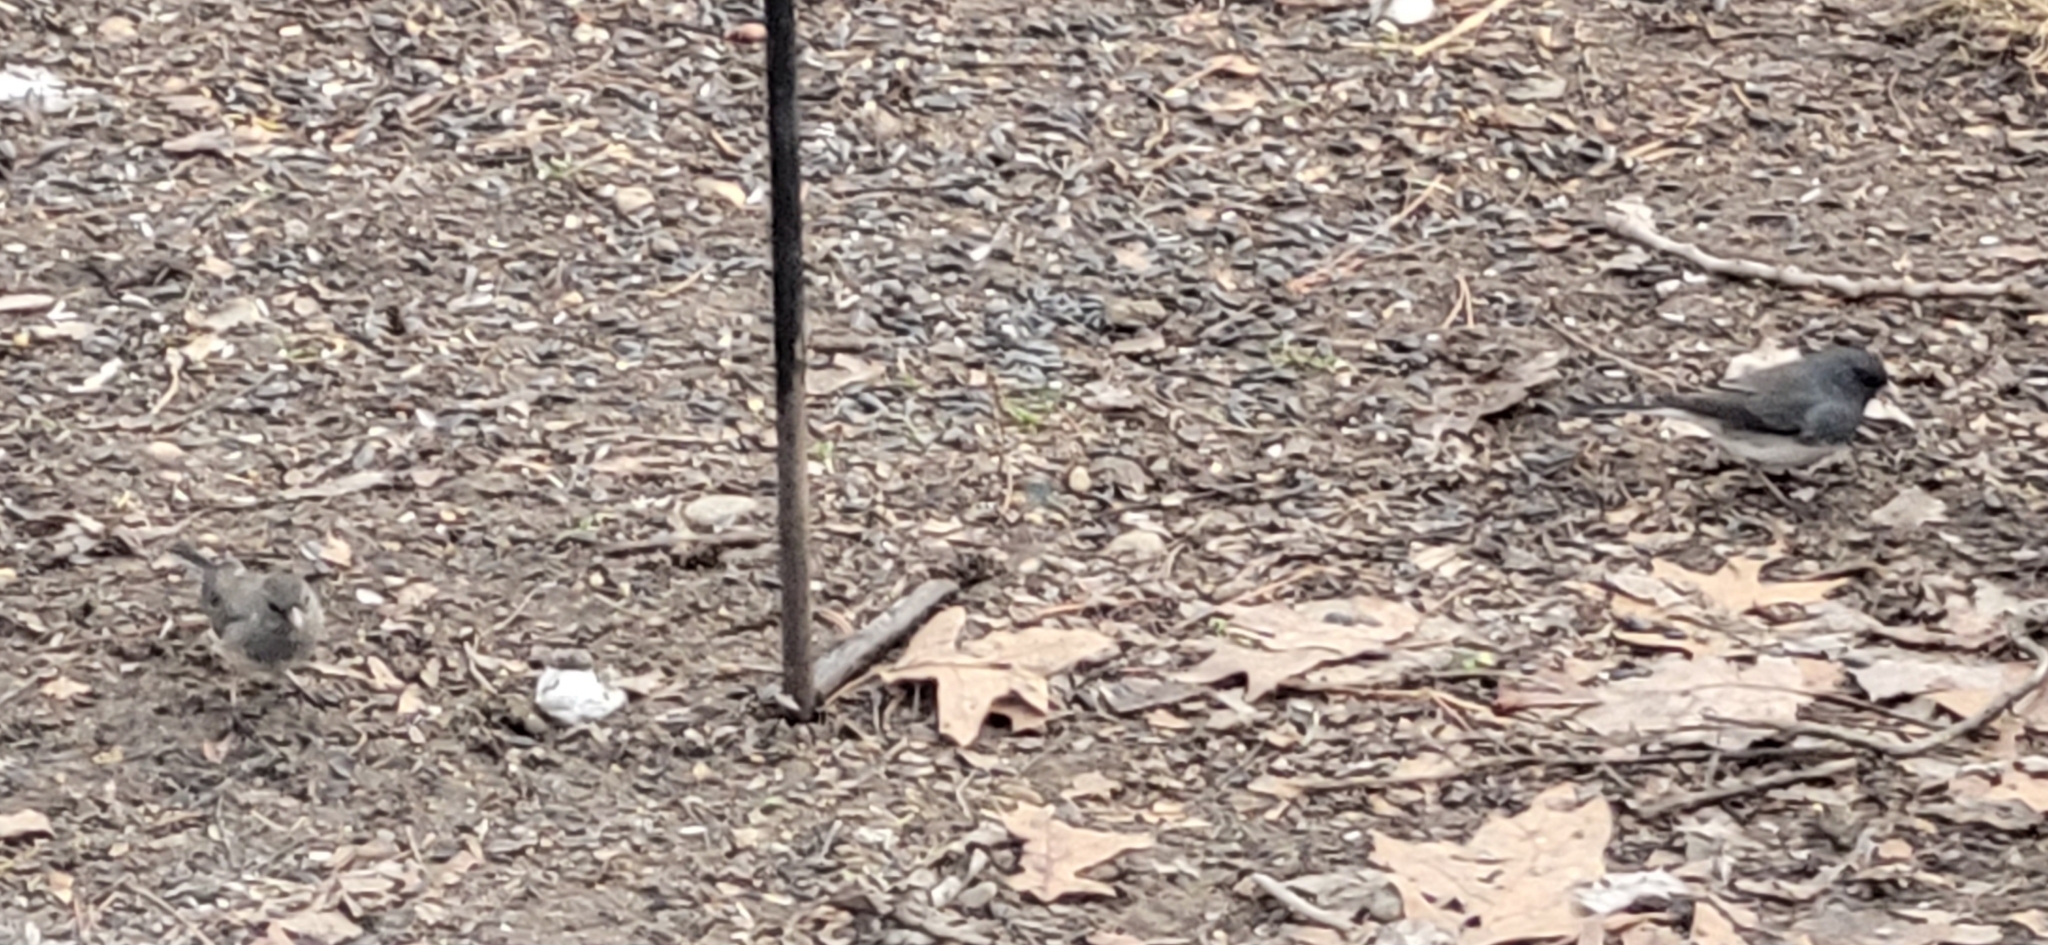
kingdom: Animalia
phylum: Chordata
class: Aves
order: Passeriformes
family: Passerellidae
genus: Junco
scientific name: Junco hyemalis
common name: Dark-eyed junco
